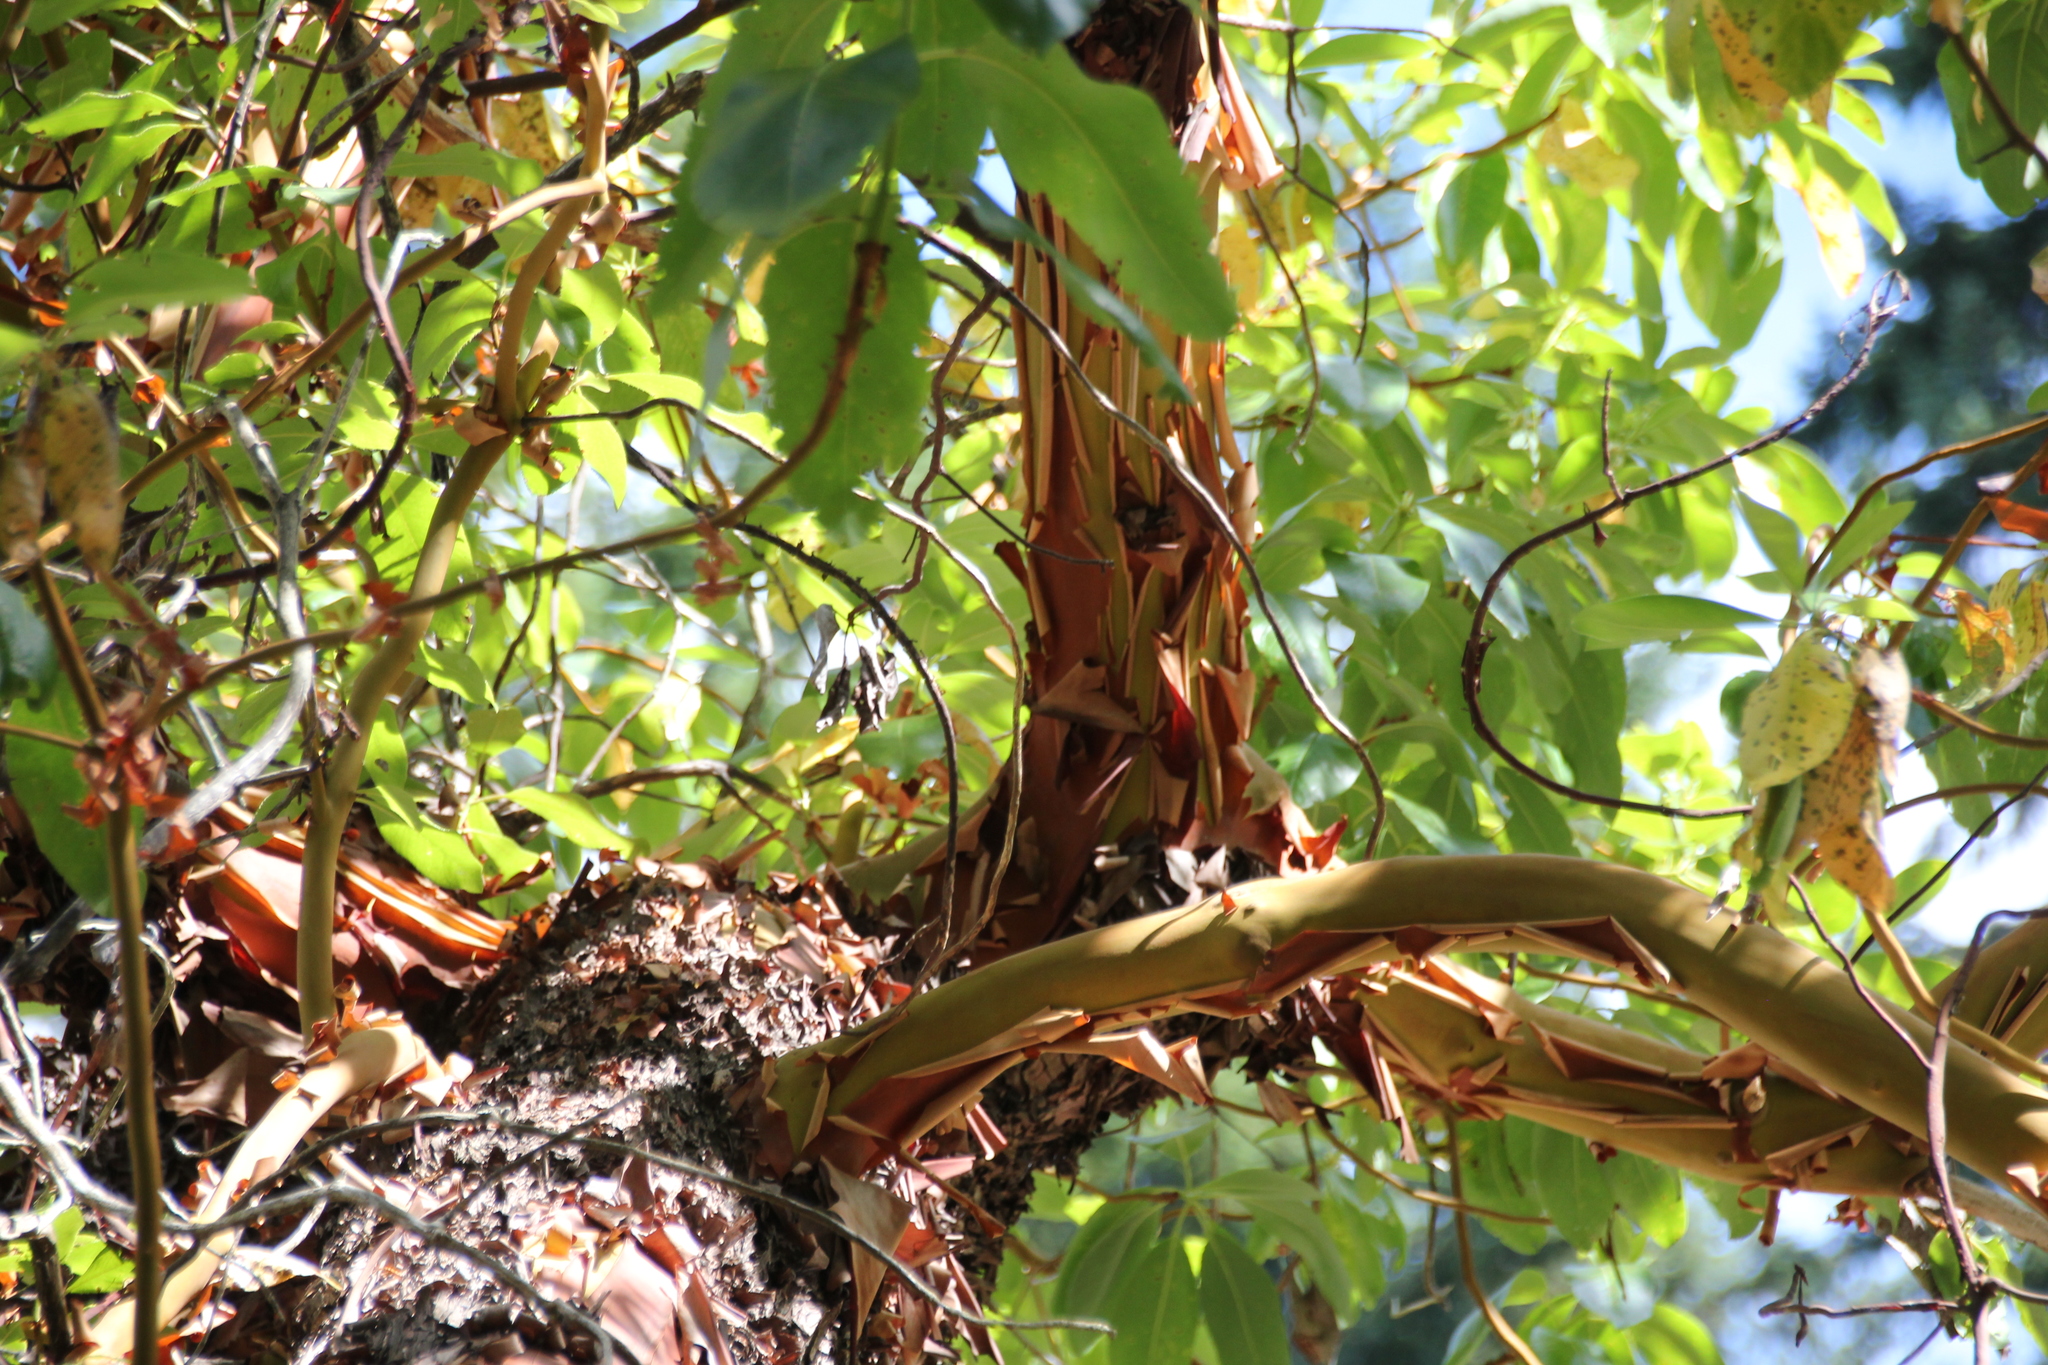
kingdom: Plantae
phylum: Tracheophyta
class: Magnoliopsida
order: Ericales
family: Ericaceae
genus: Arbutus
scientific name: Arbutus menziesii
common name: Pacific madrone
